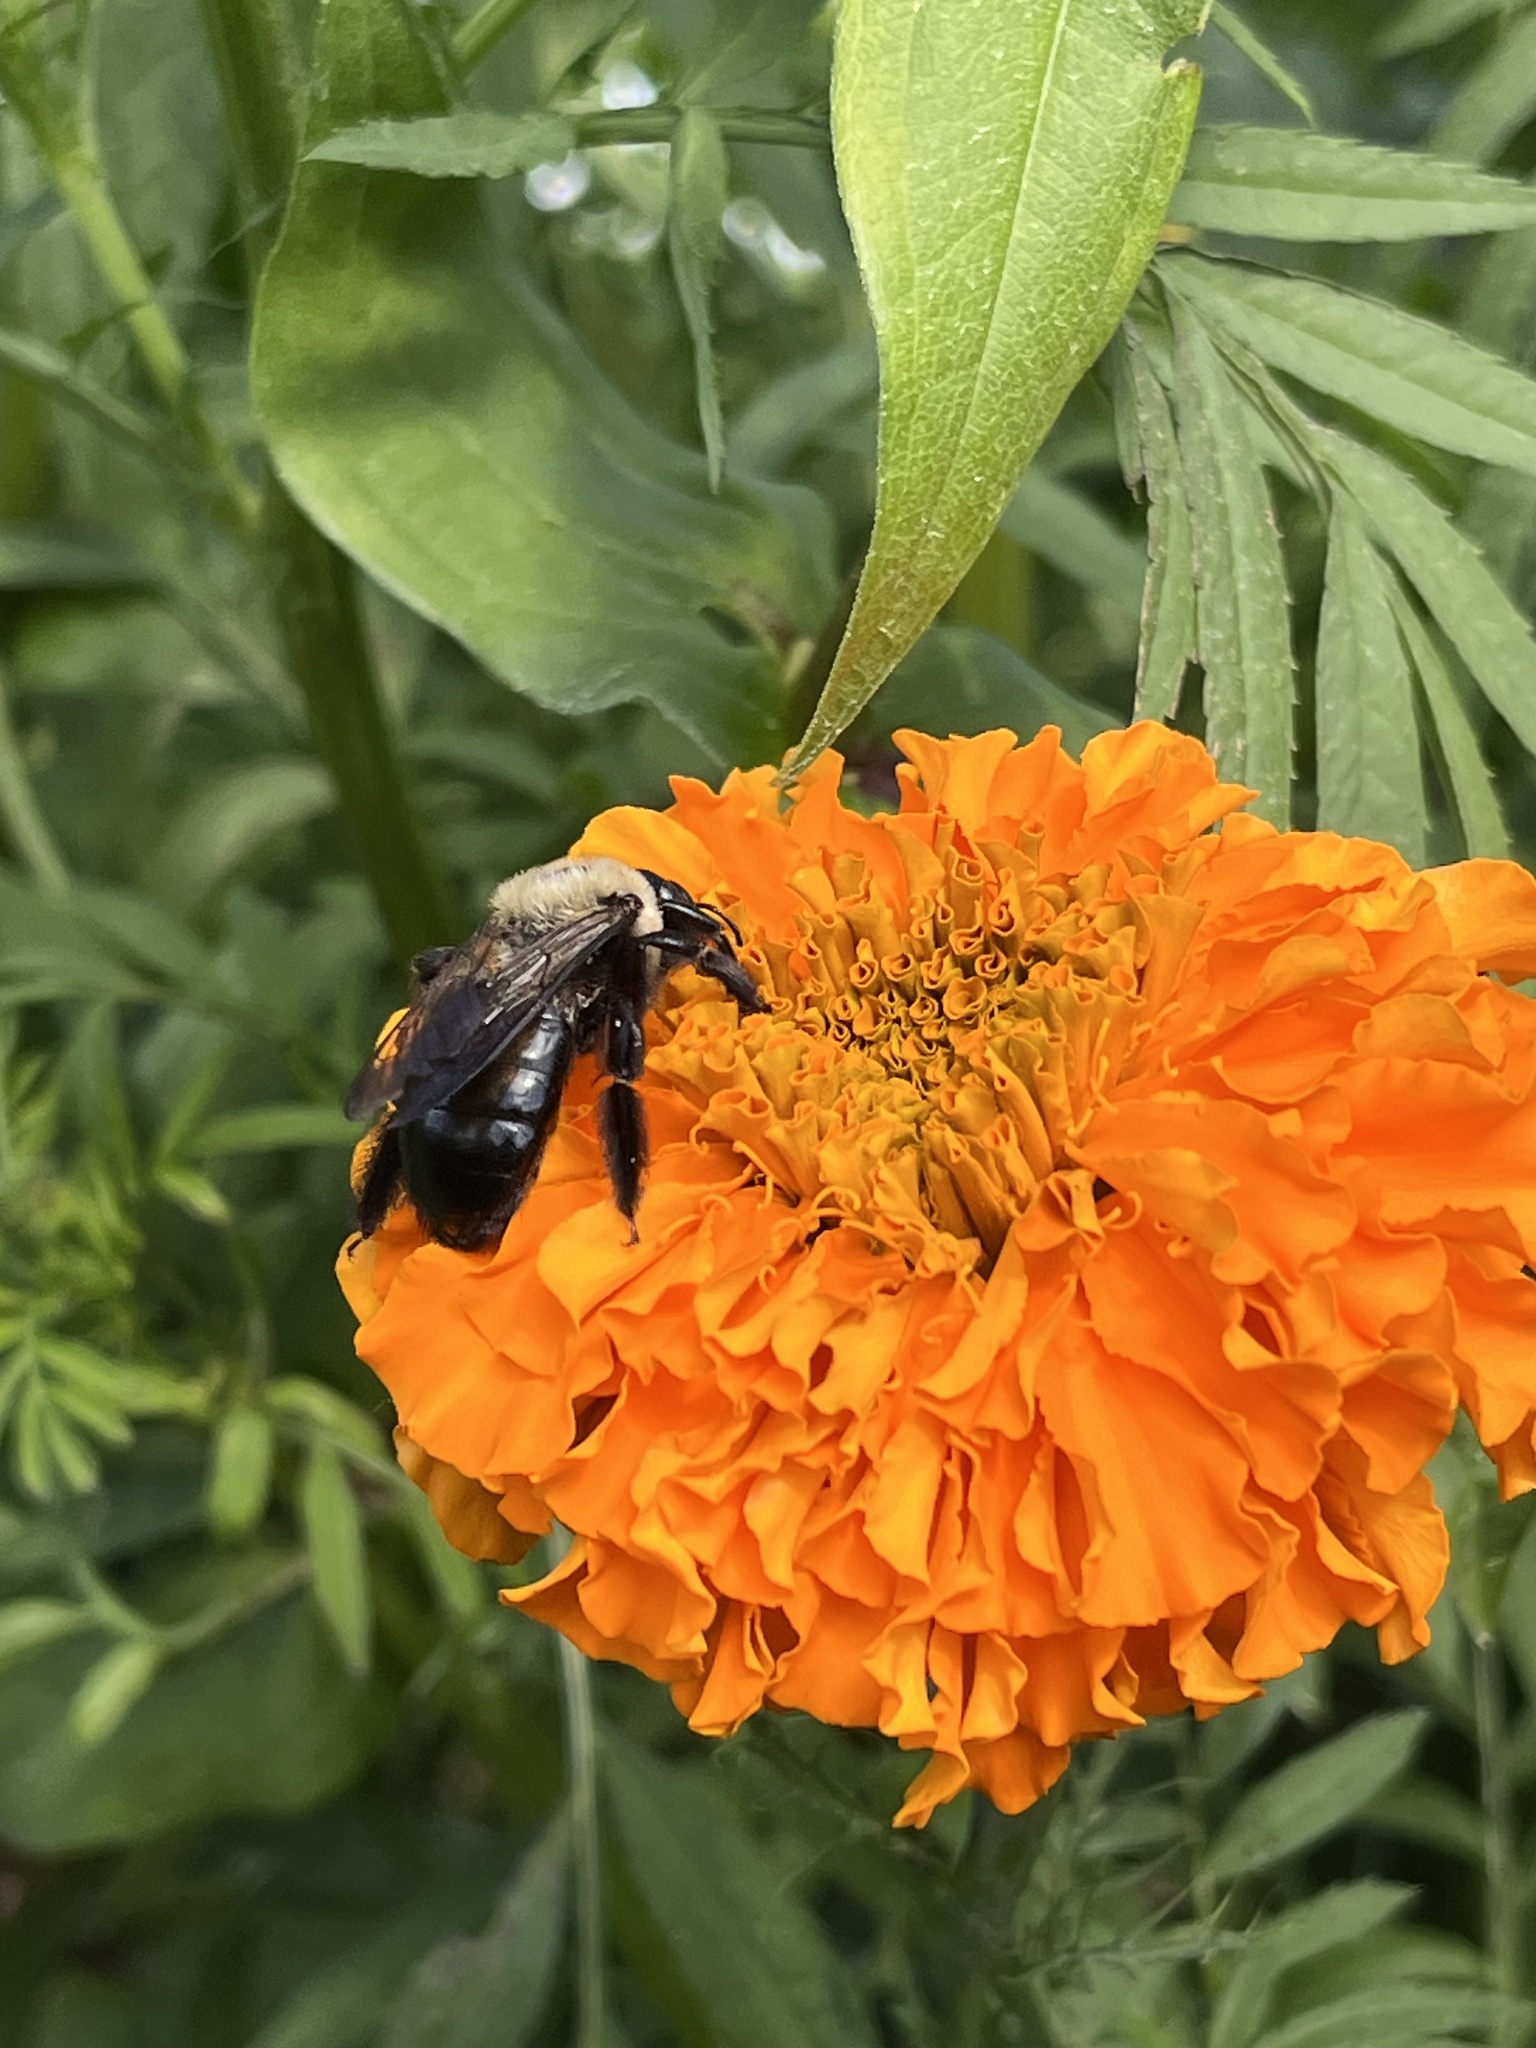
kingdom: Animalia
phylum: Arthropoda
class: Insecta
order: Hymenoptera
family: Apidae
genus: Xylocopa
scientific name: Xylocopa virginica
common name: Carpenter bee
